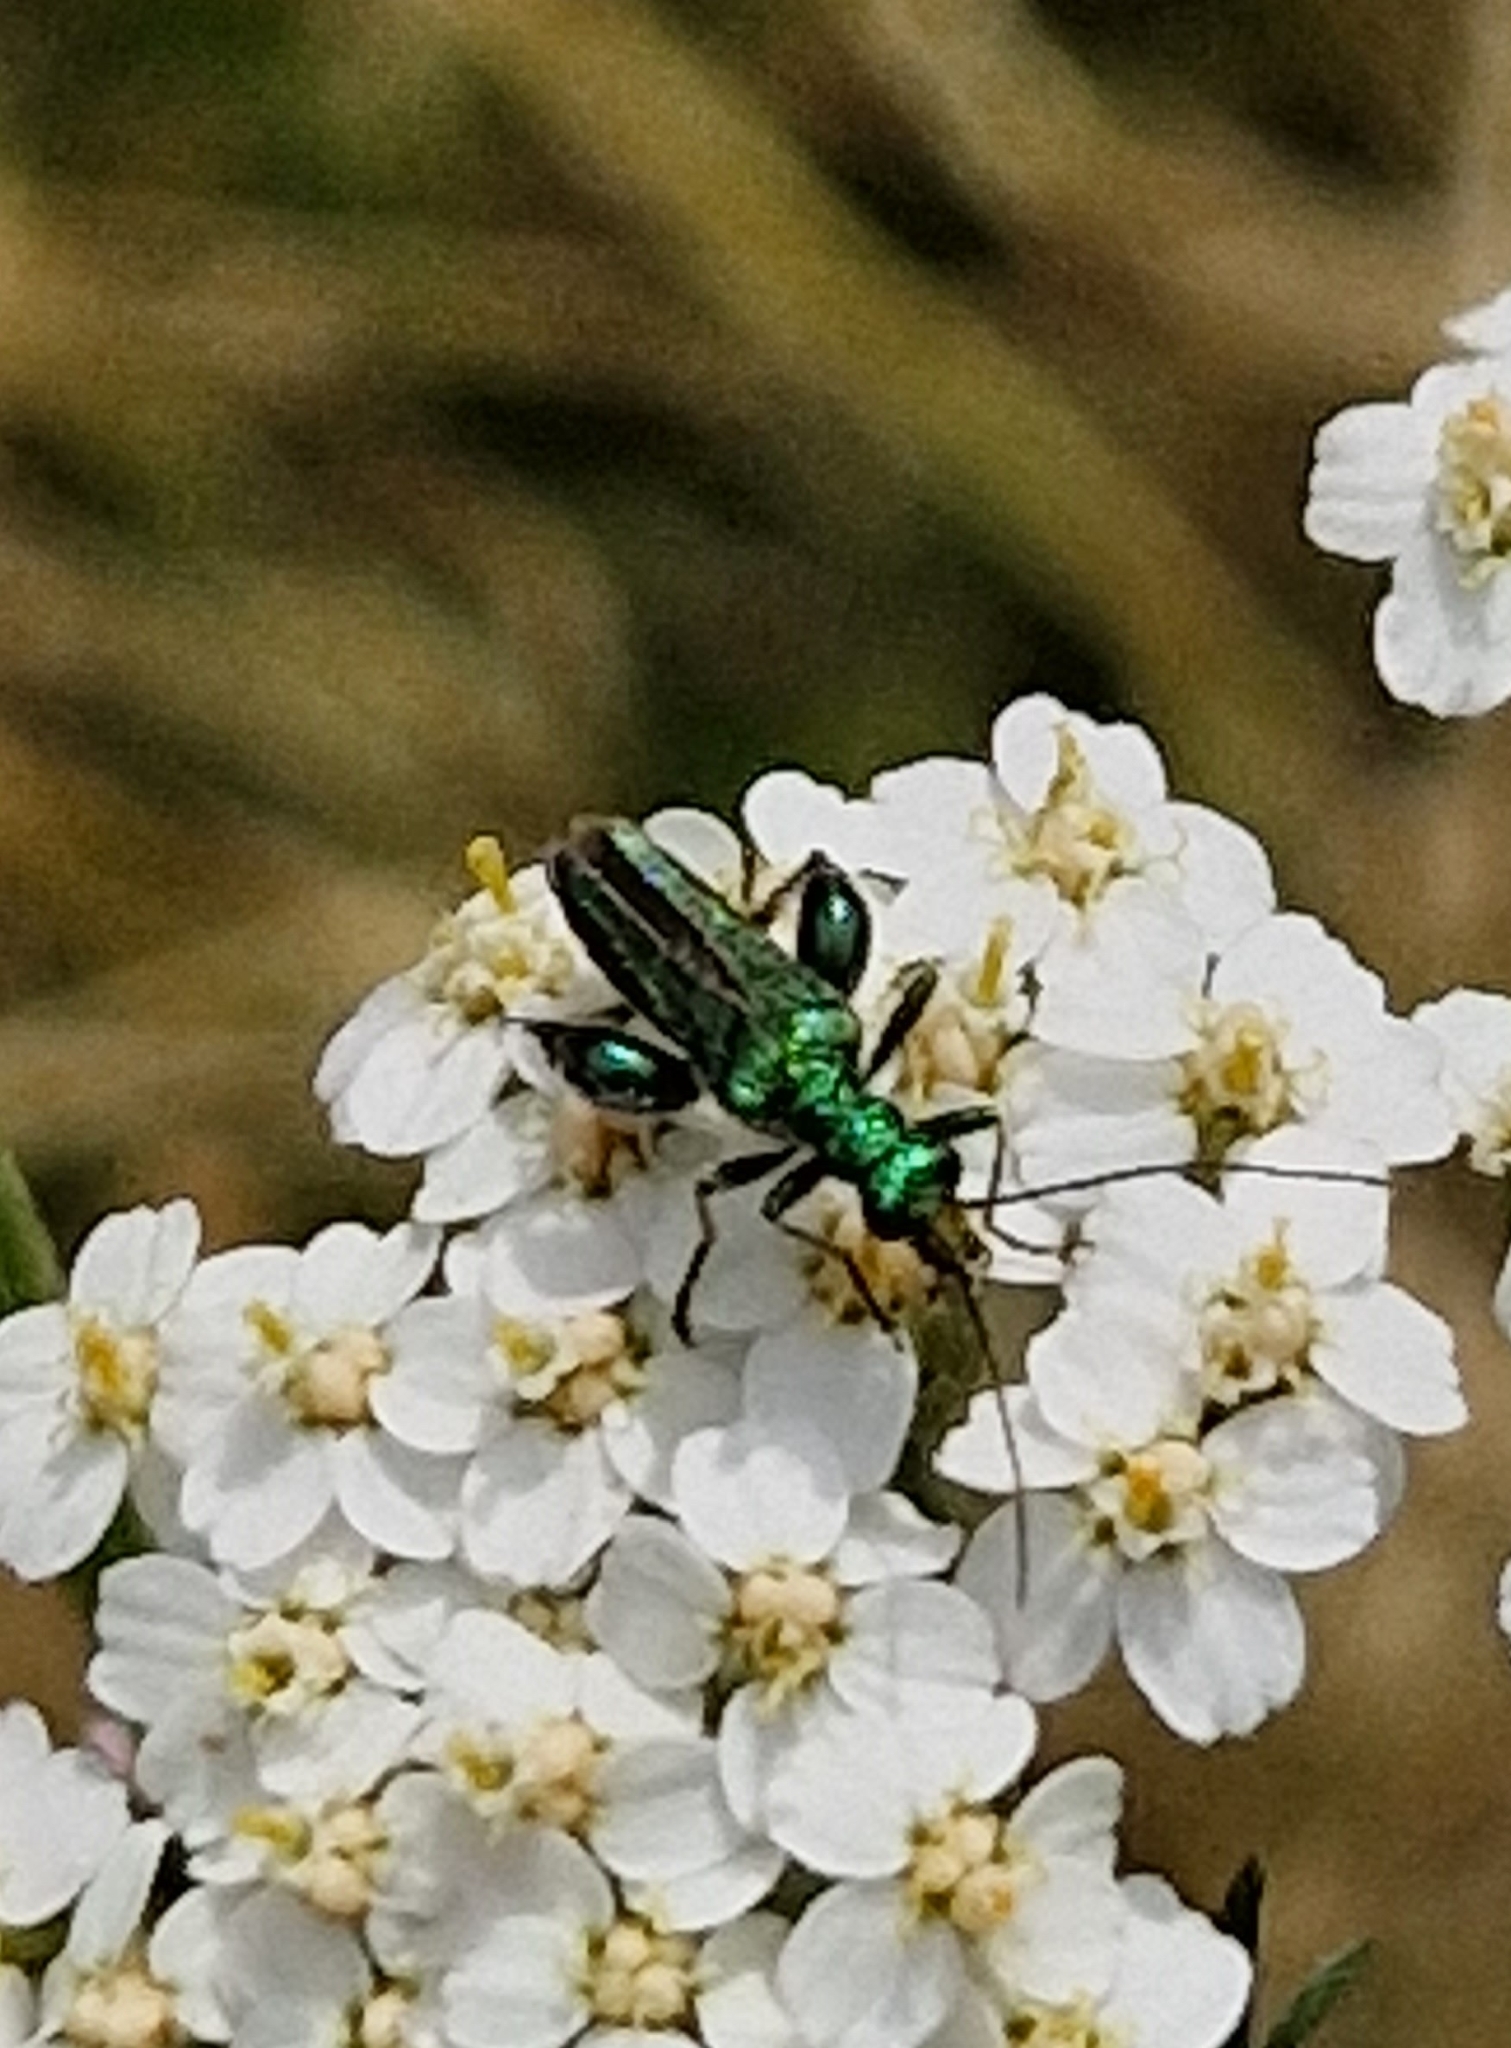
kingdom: Animalia
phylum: Arthropoda
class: Insecta
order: Coleoptera
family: Oedemeridae
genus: Oedemera
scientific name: Oedemera nobilis
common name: Swollen-thighed beetle
